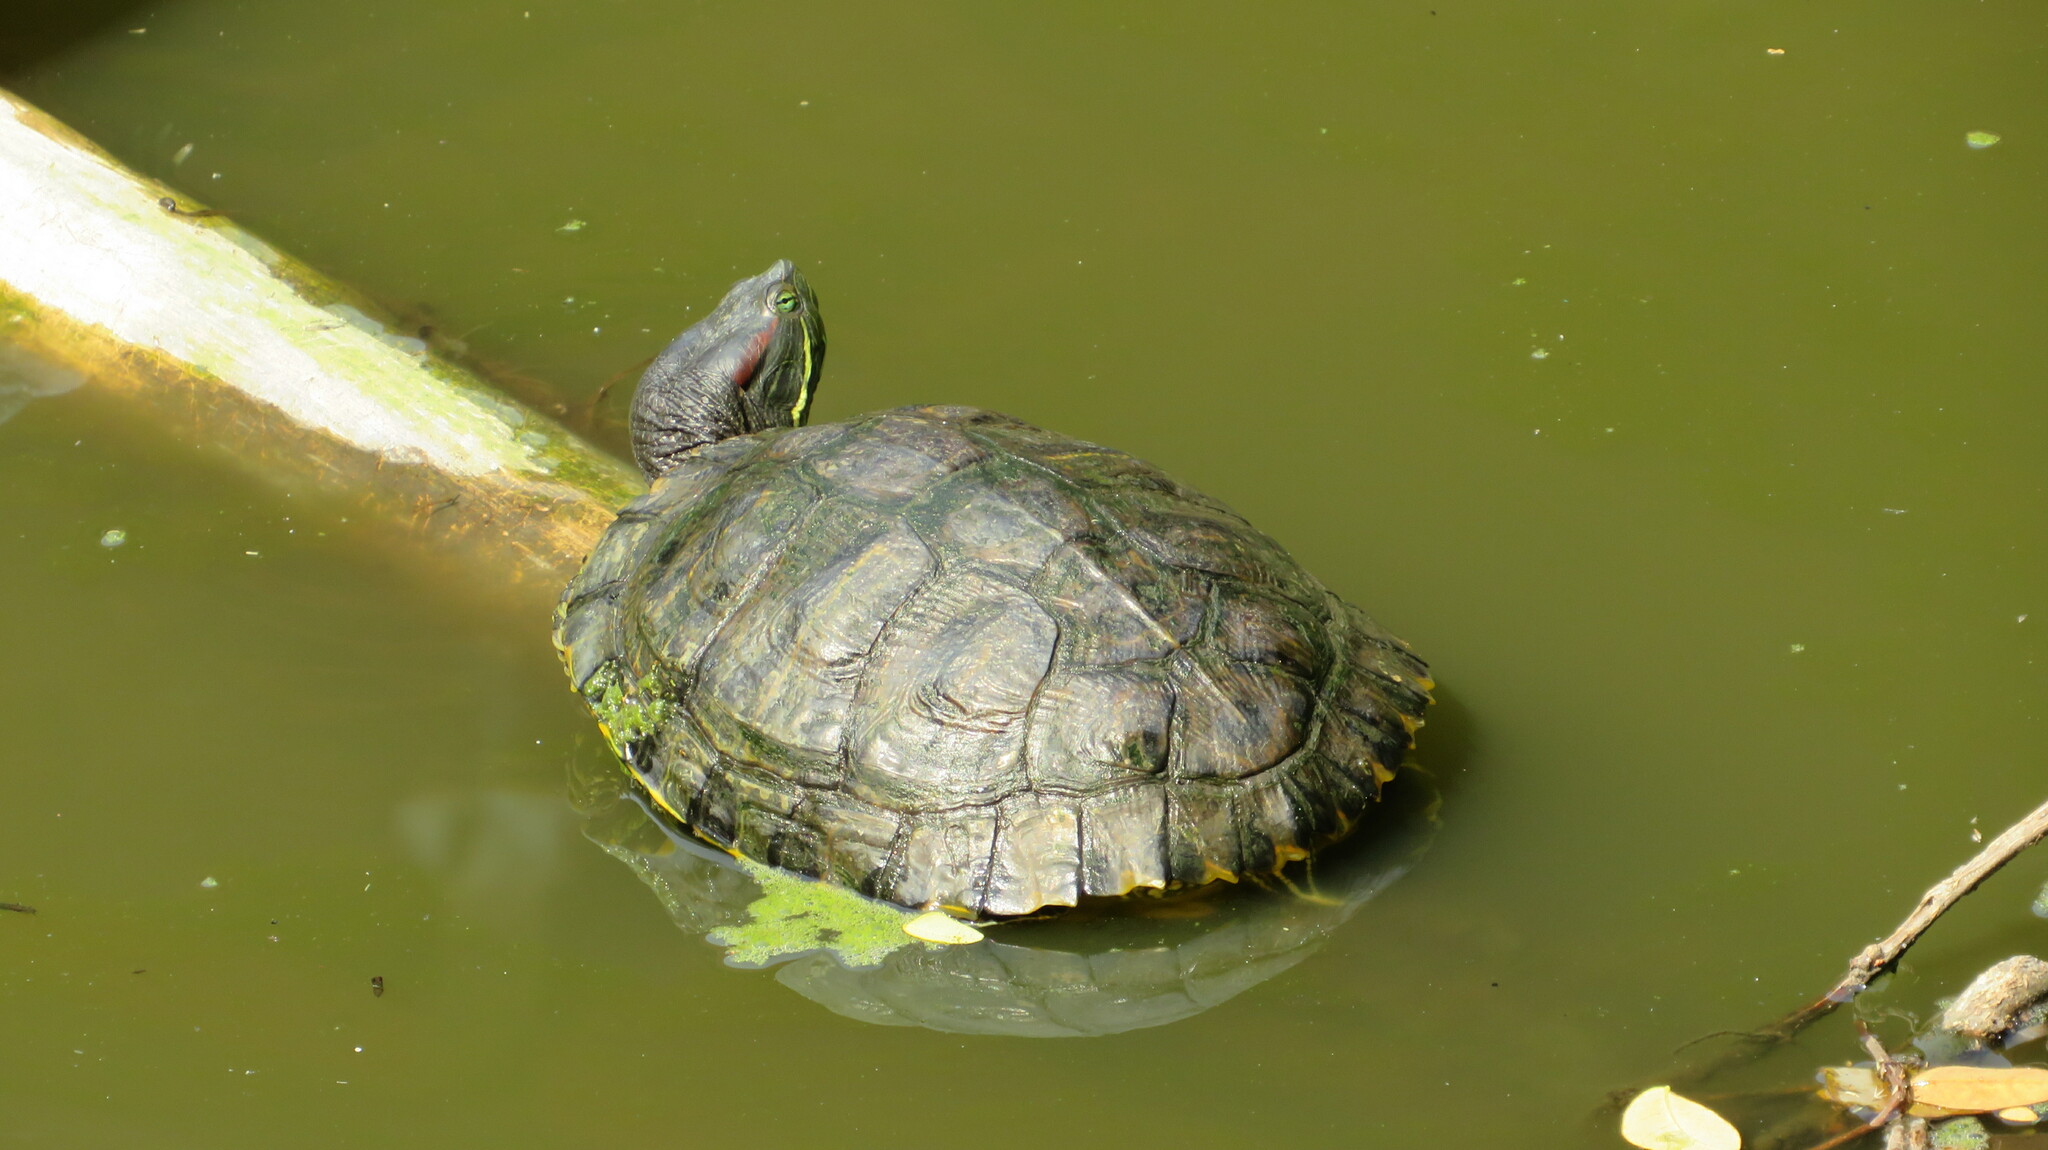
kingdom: Animalia
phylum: Chordata
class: Testudines
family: Emydidae
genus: Trachemys
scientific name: Trachemys scripta
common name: Slider
